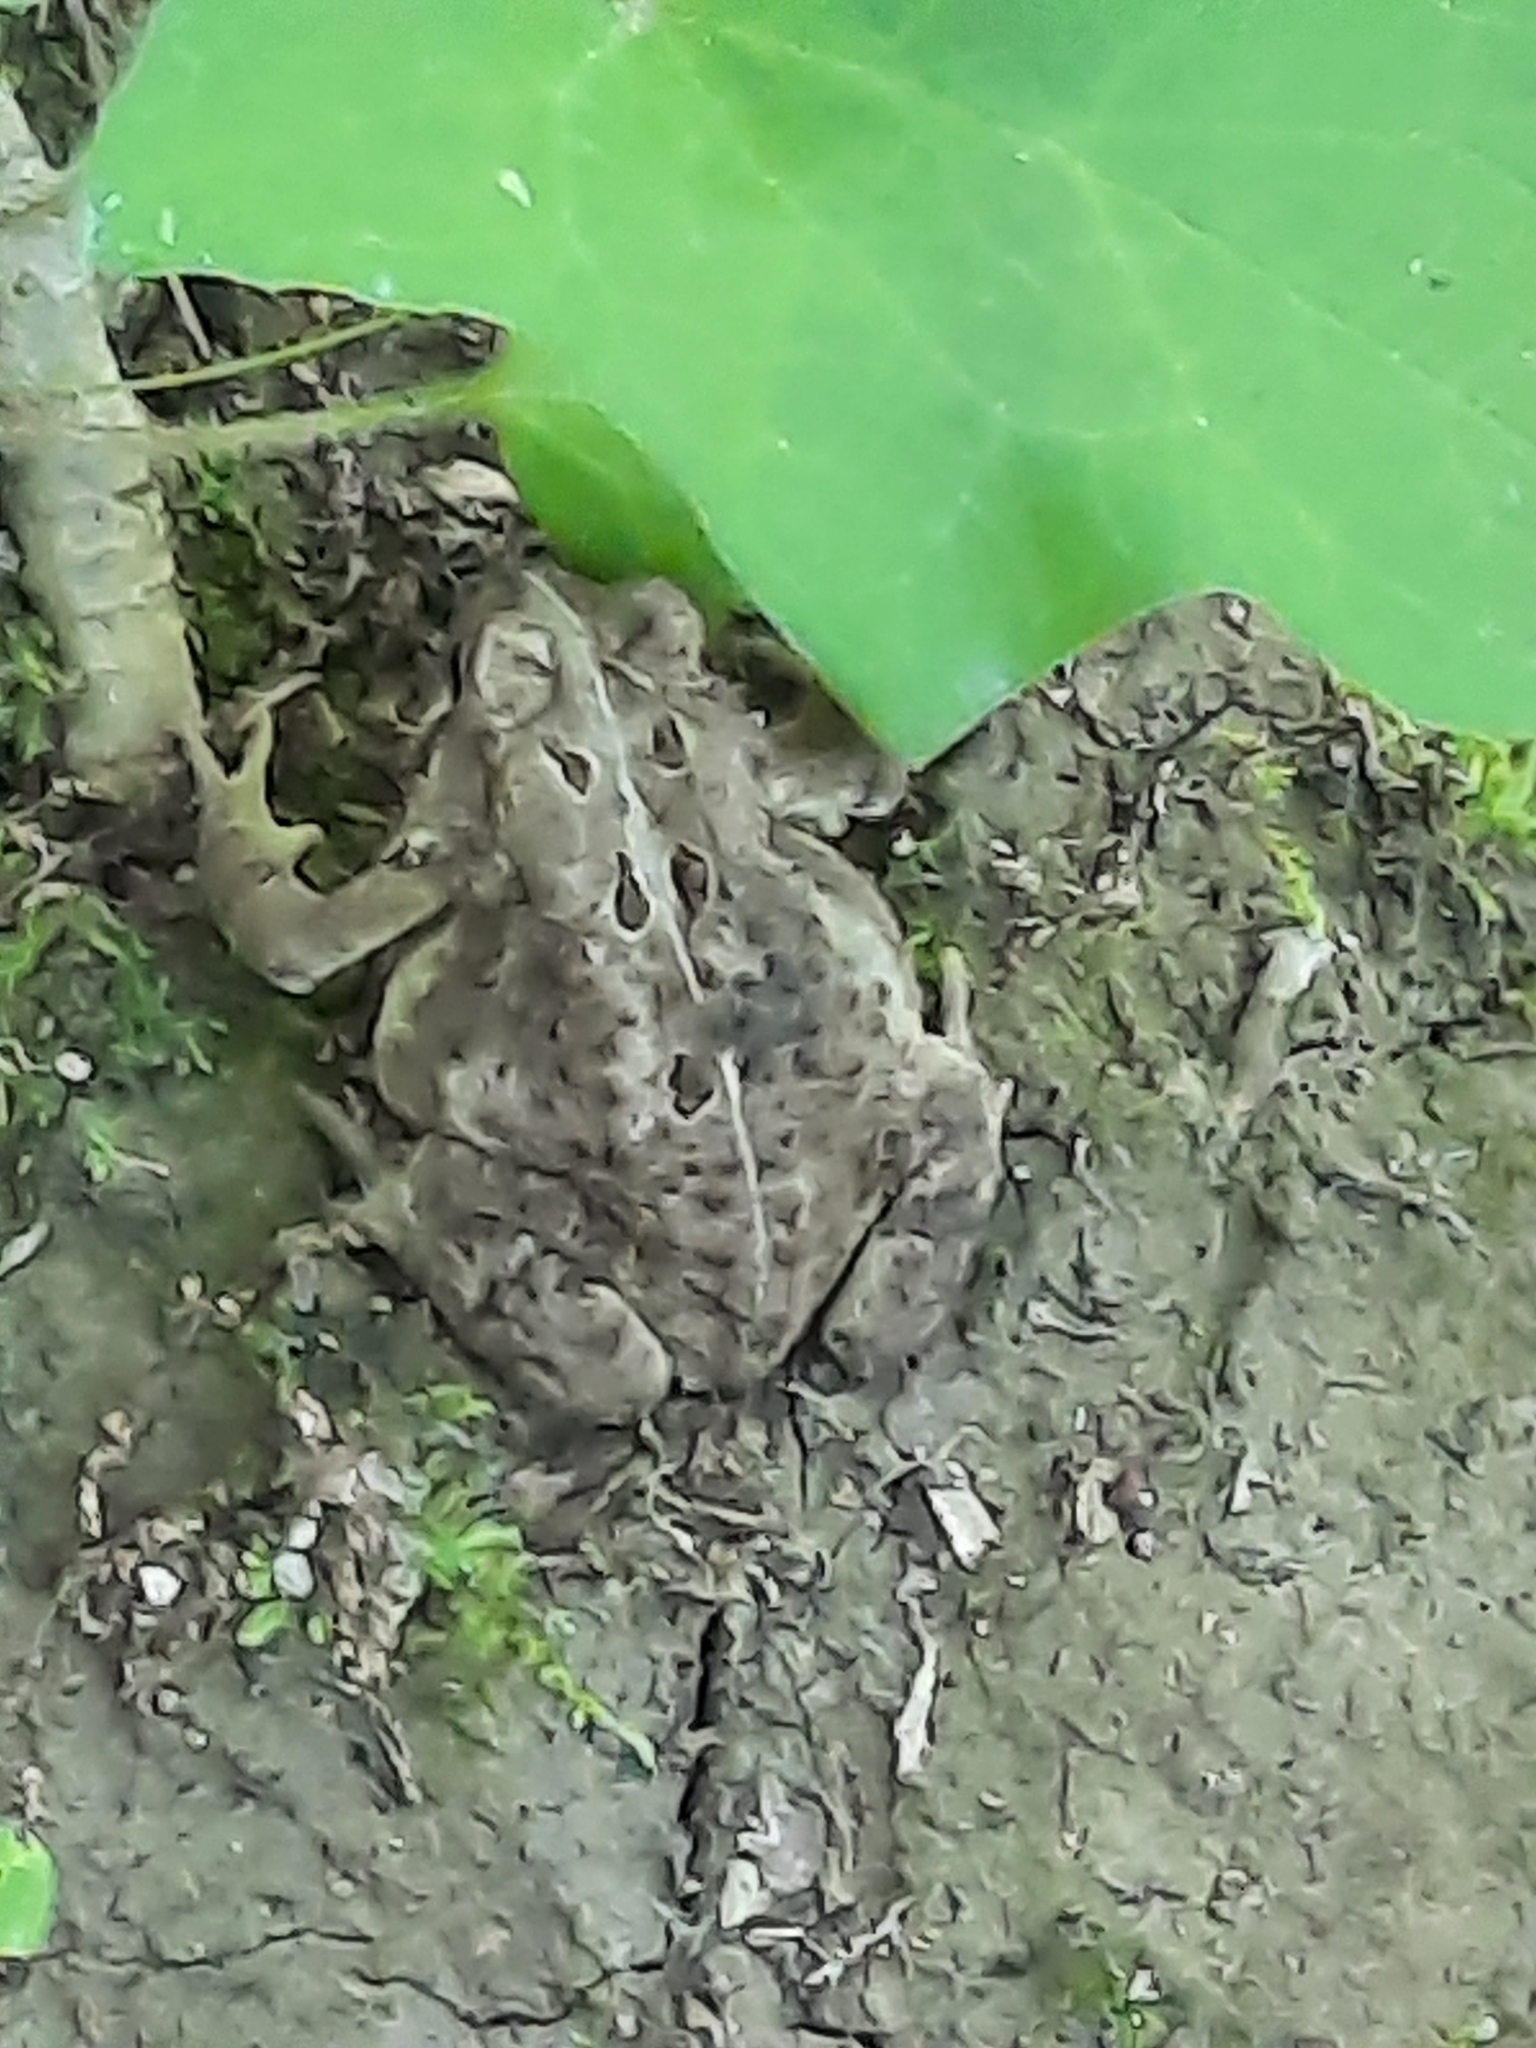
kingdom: Animalia
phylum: Chordata
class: Amphibia
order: Anura
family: Bufonidae
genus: Anaxyrus
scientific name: Anaxyrus americanus
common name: American toad
